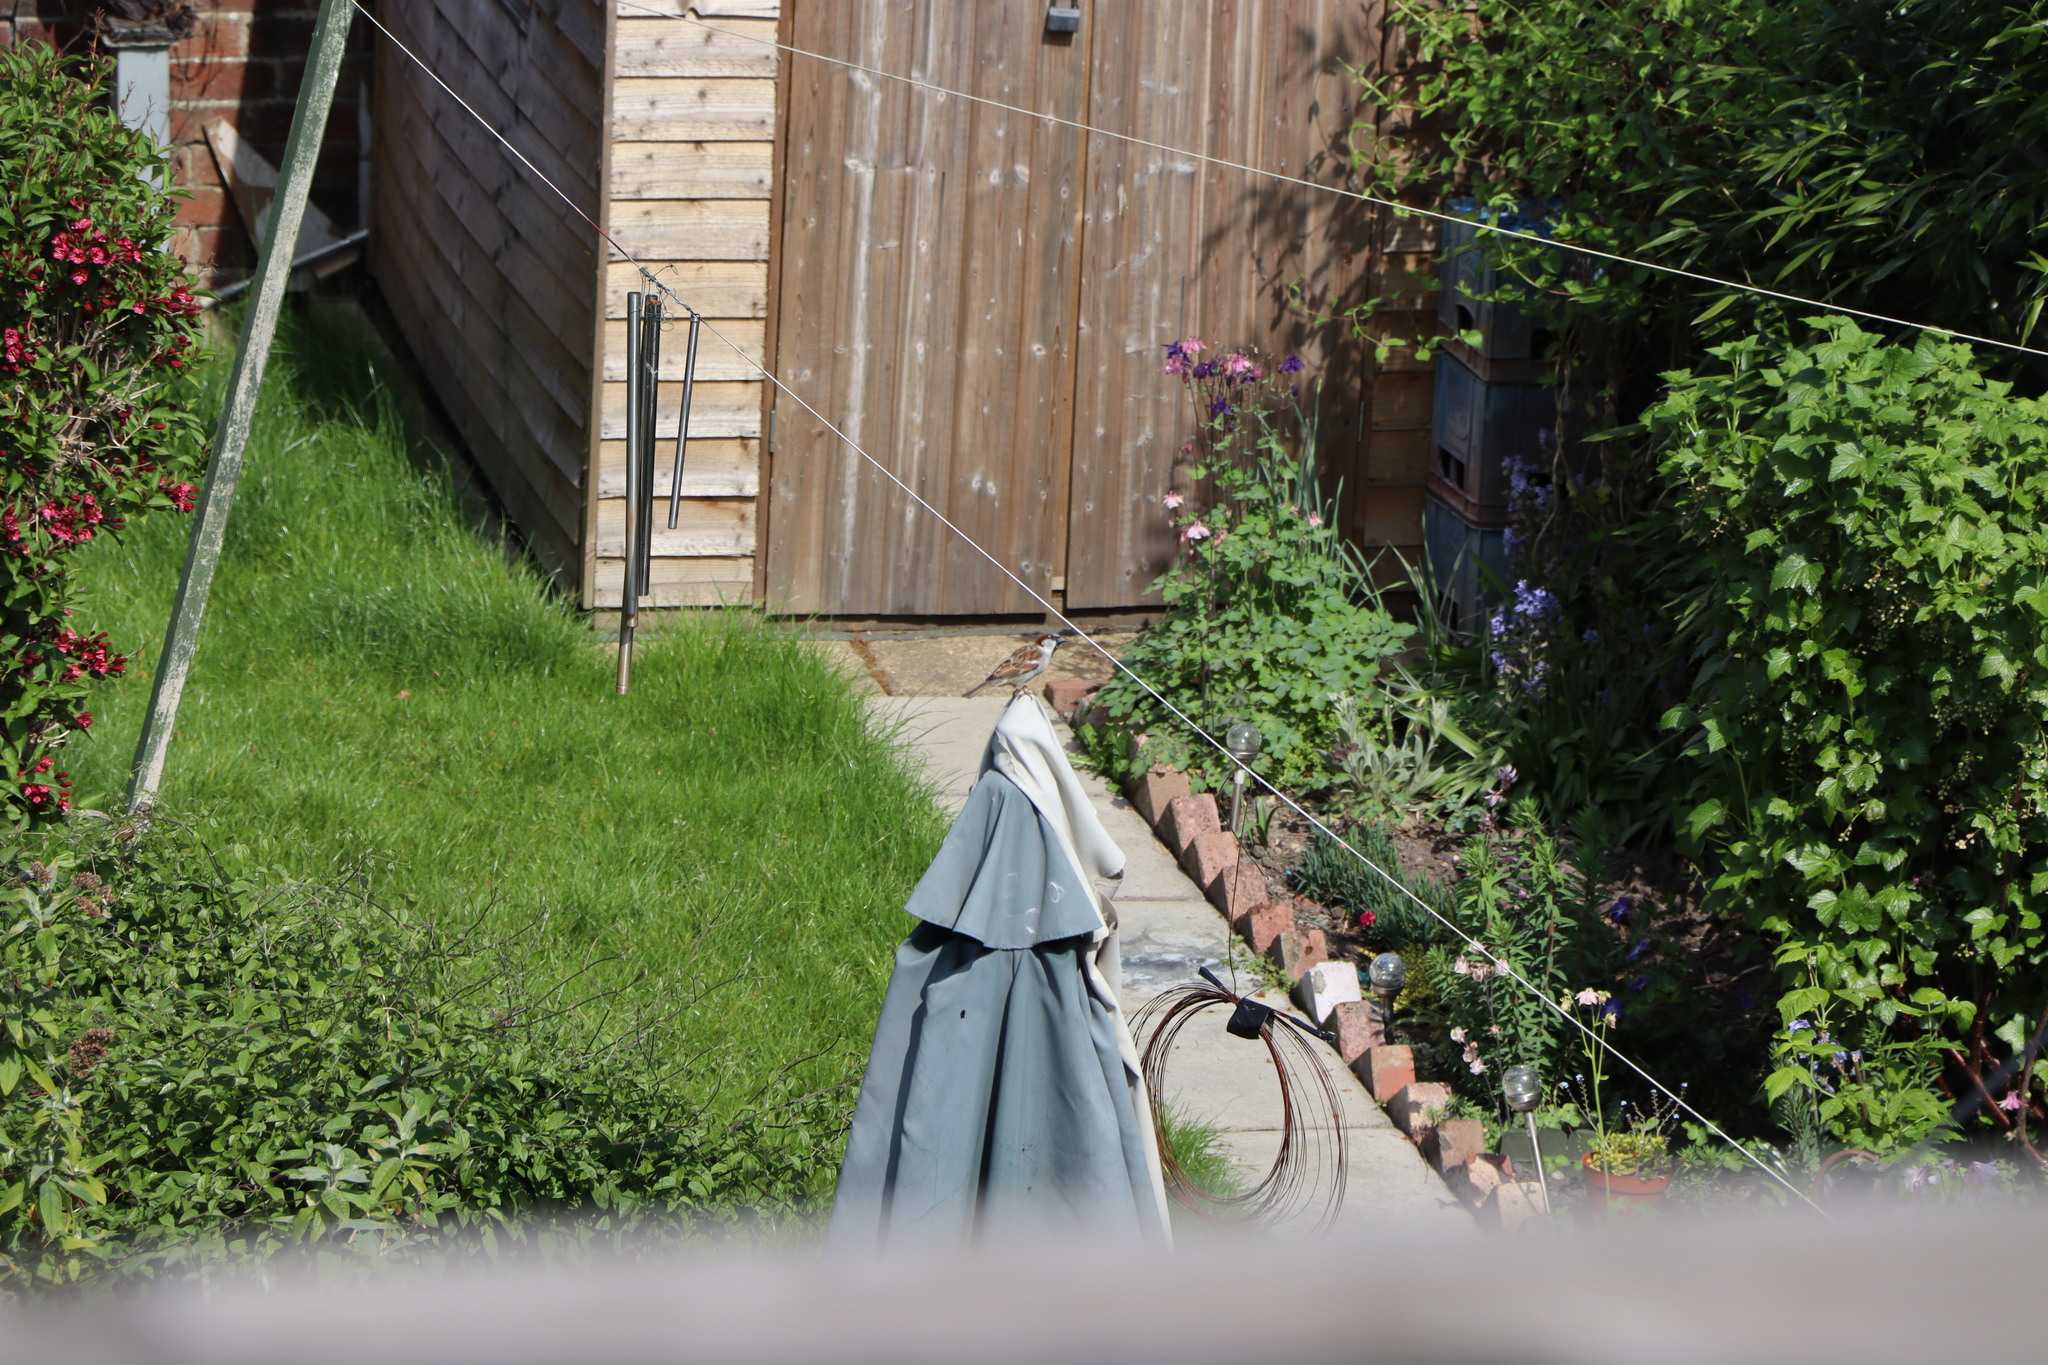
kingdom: Animalia
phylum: Chordata
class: Aves
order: Passeriformes
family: Passeridae
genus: Passer
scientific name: Passer domesticus
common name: House sparrow
